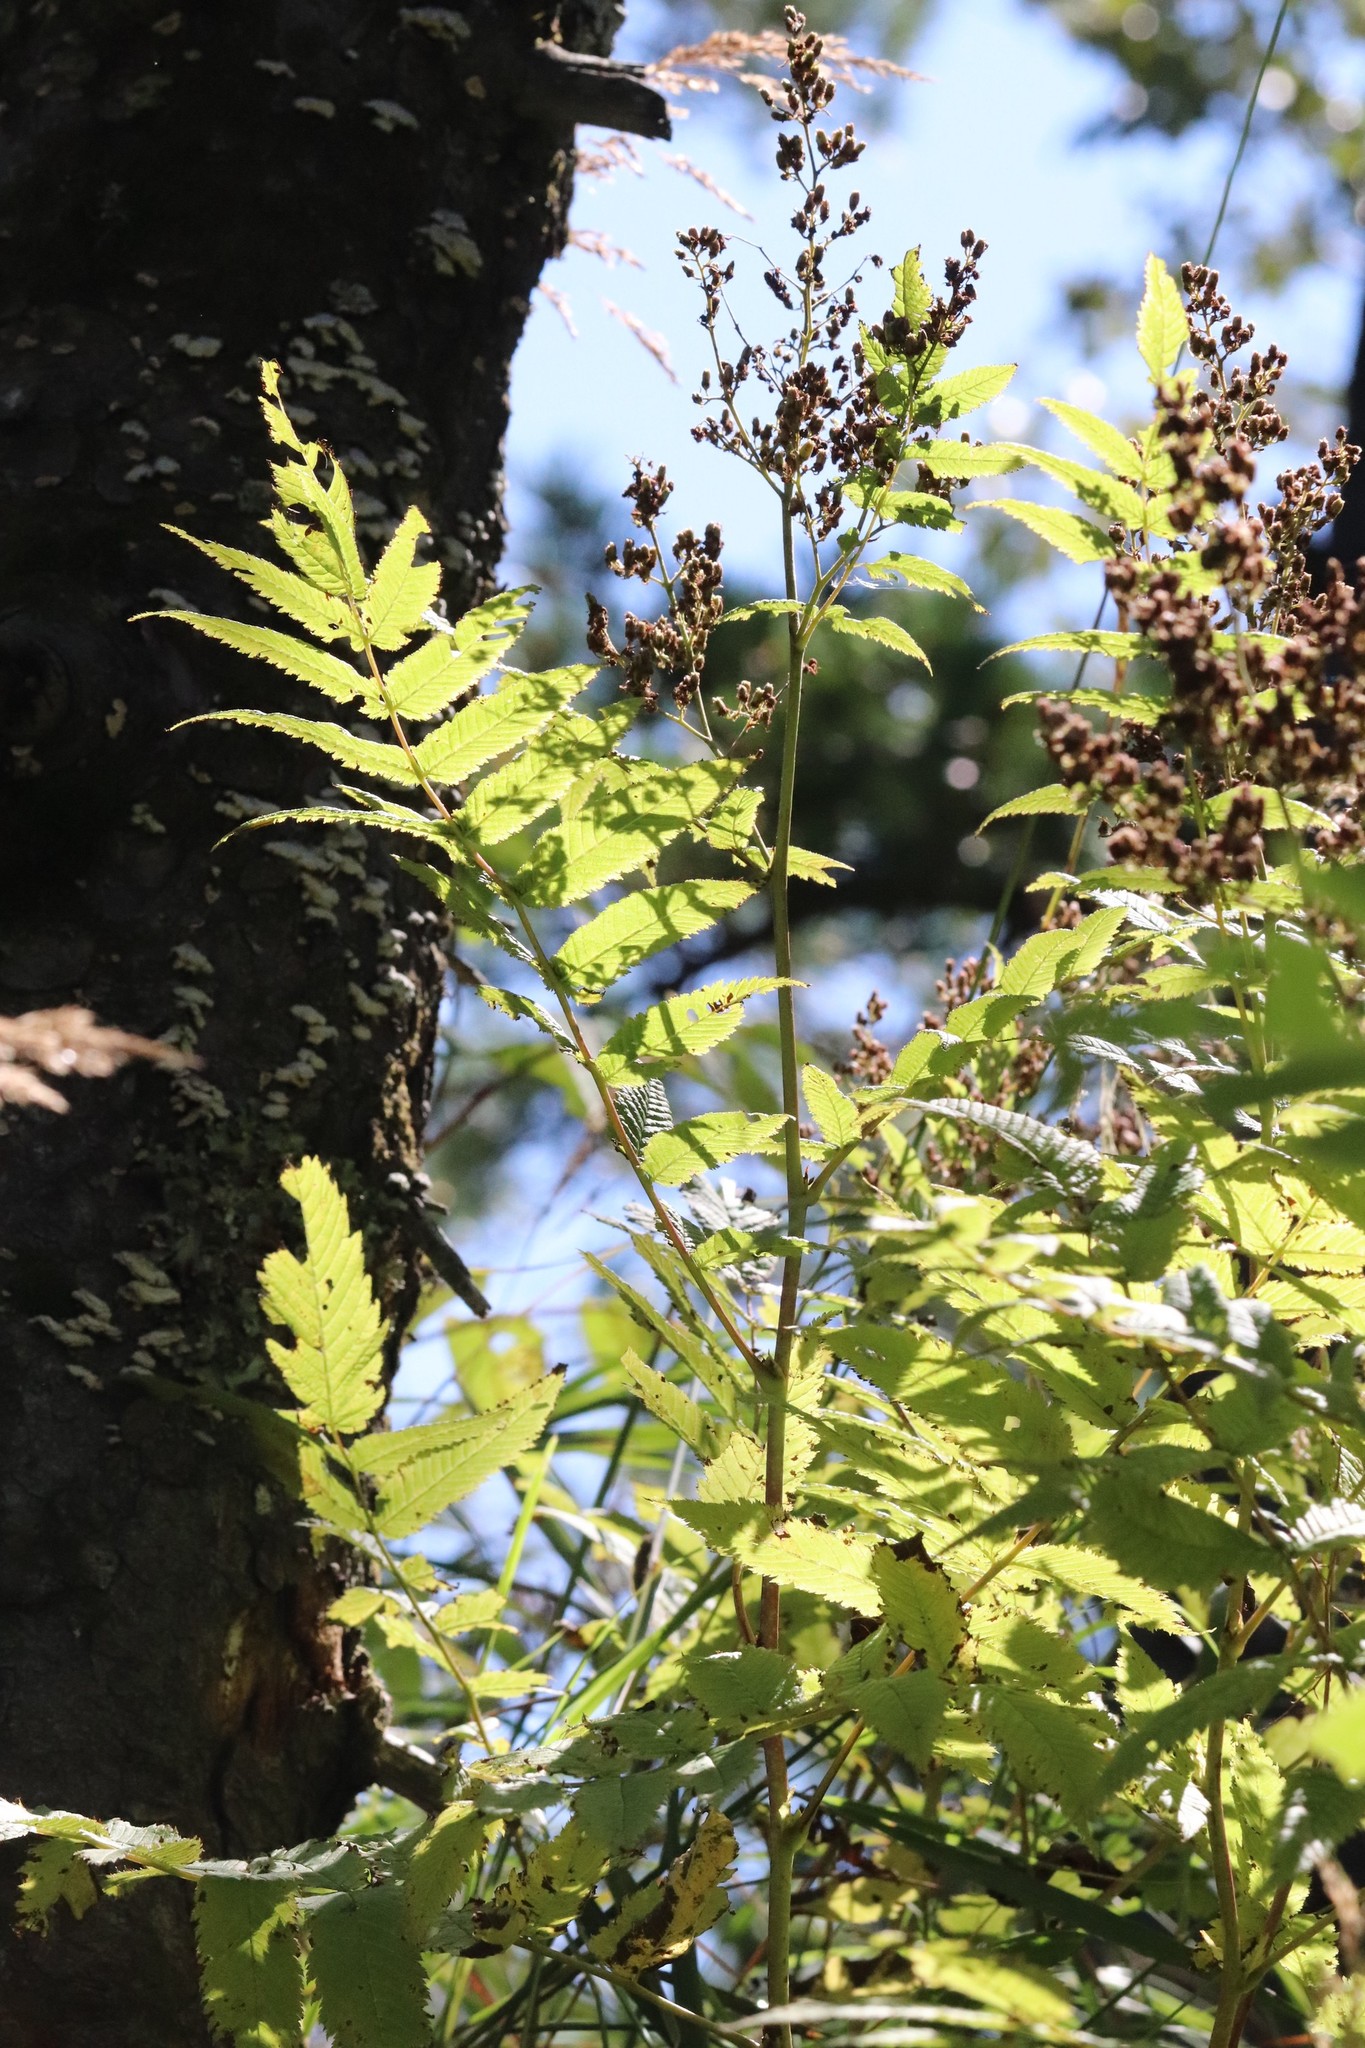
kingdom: Plantae
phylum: Tracheophyta
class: Magnoliopsida
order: Rosales
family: Rosaceae
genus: Sorbaria
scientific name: Sorbaria sorbifolia
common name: False spiraea
